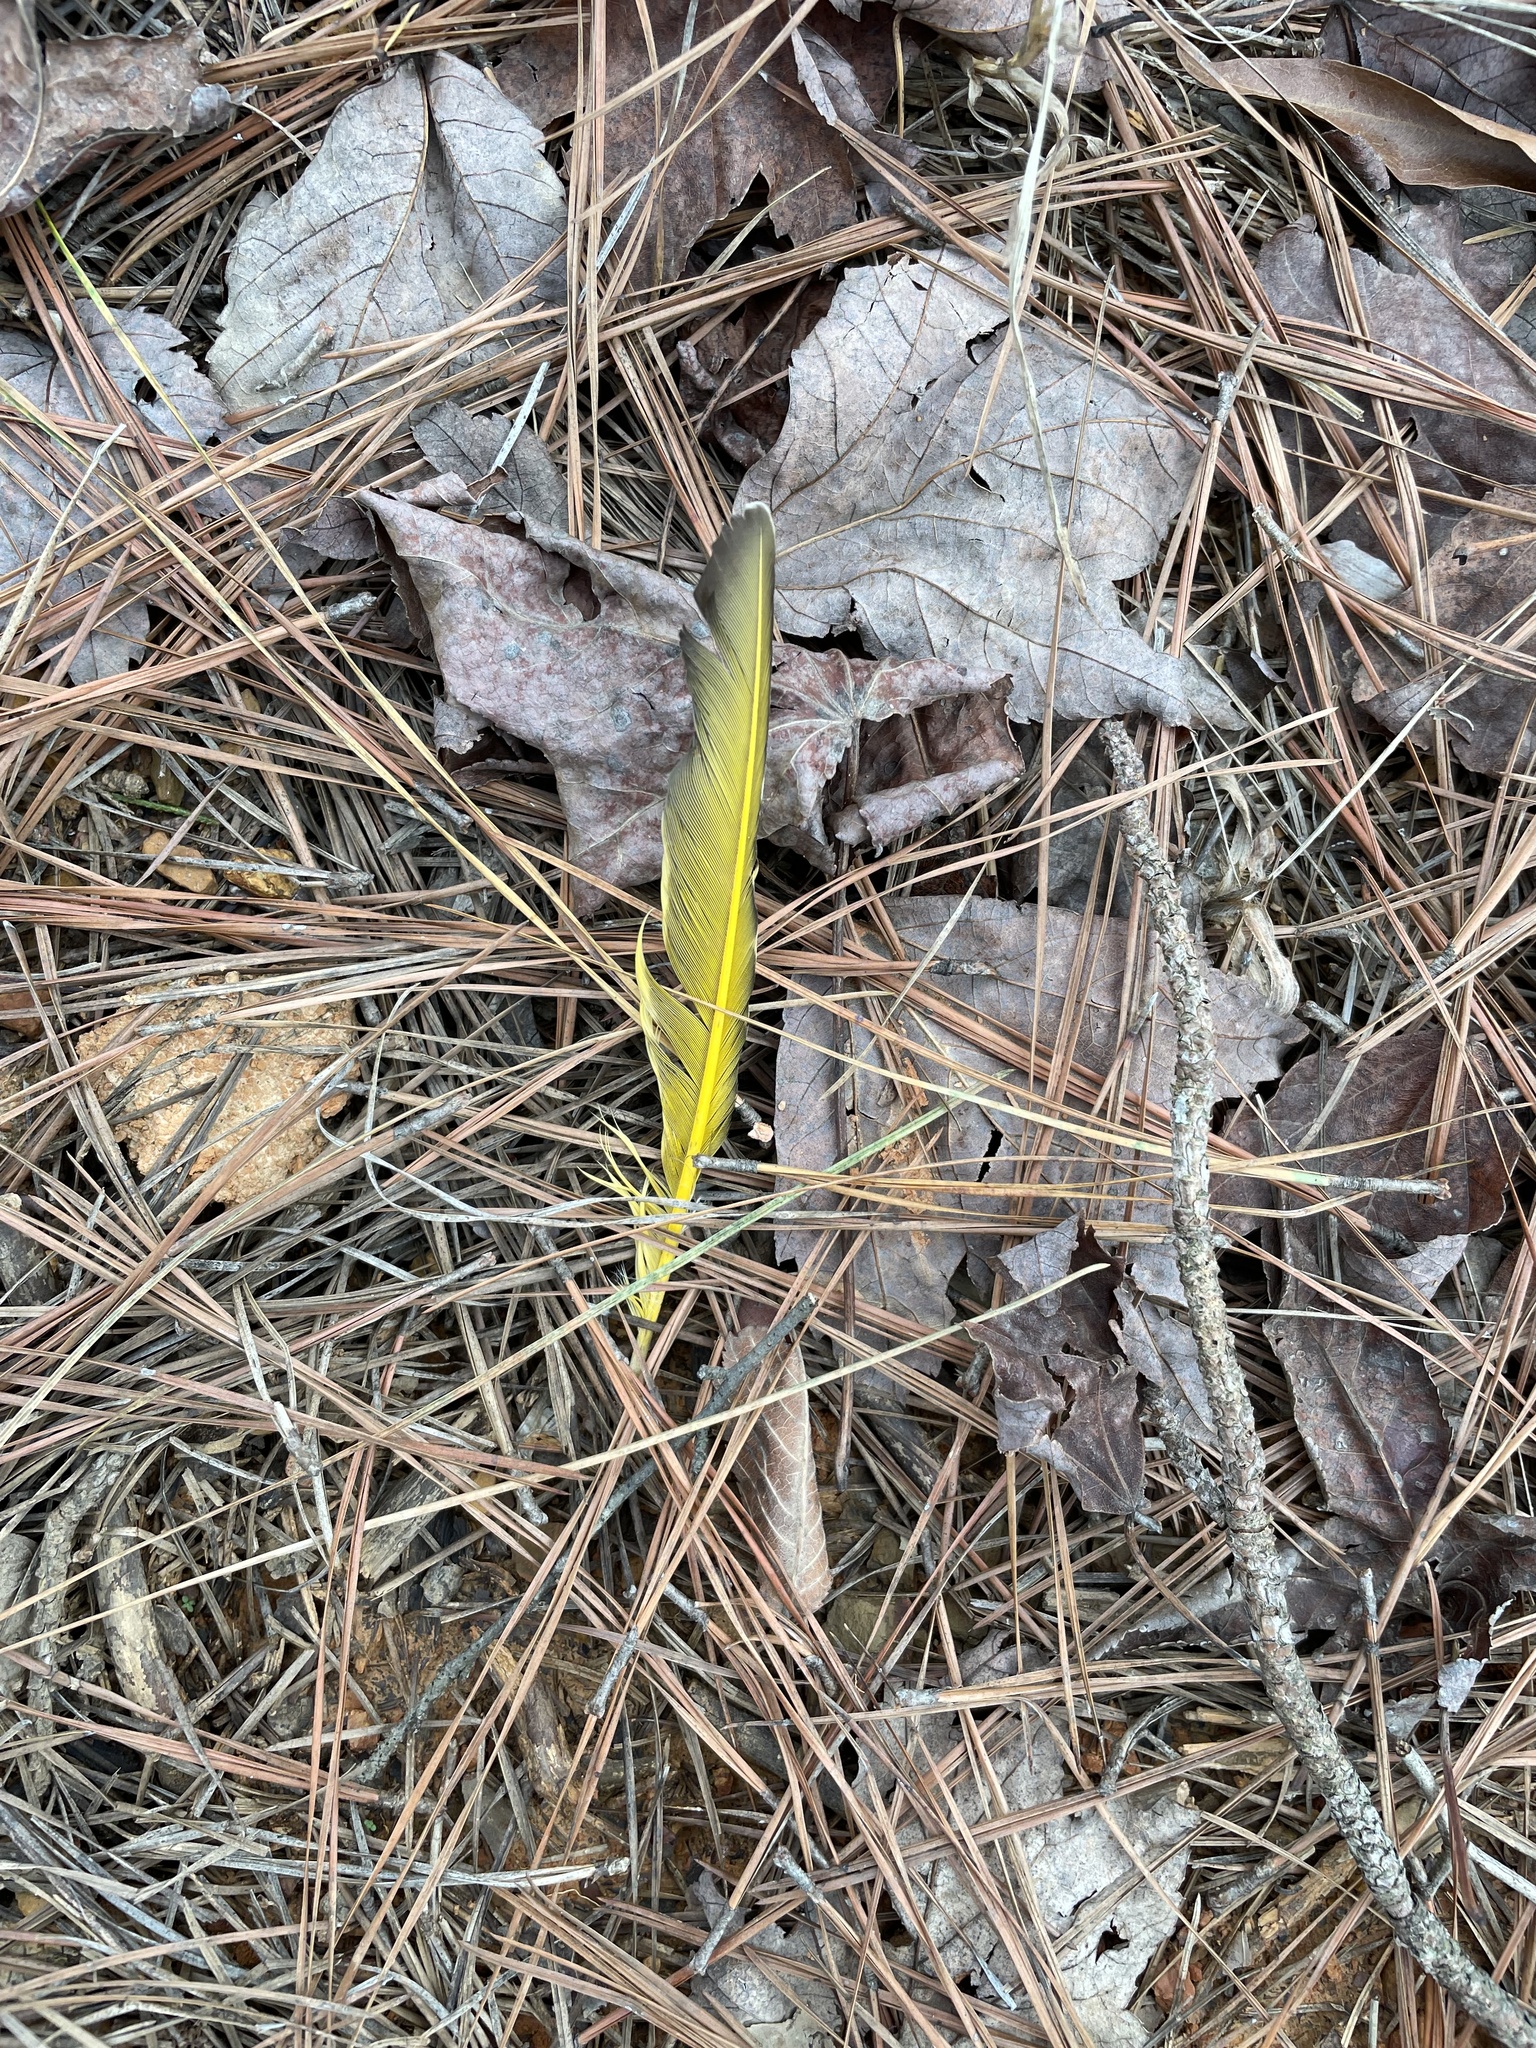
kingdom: Animalia
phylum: Chordata
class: Aves
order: Piciformes
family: Picidae
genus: Colaptes
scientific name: Colaptes auratus
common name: Northern flicker
